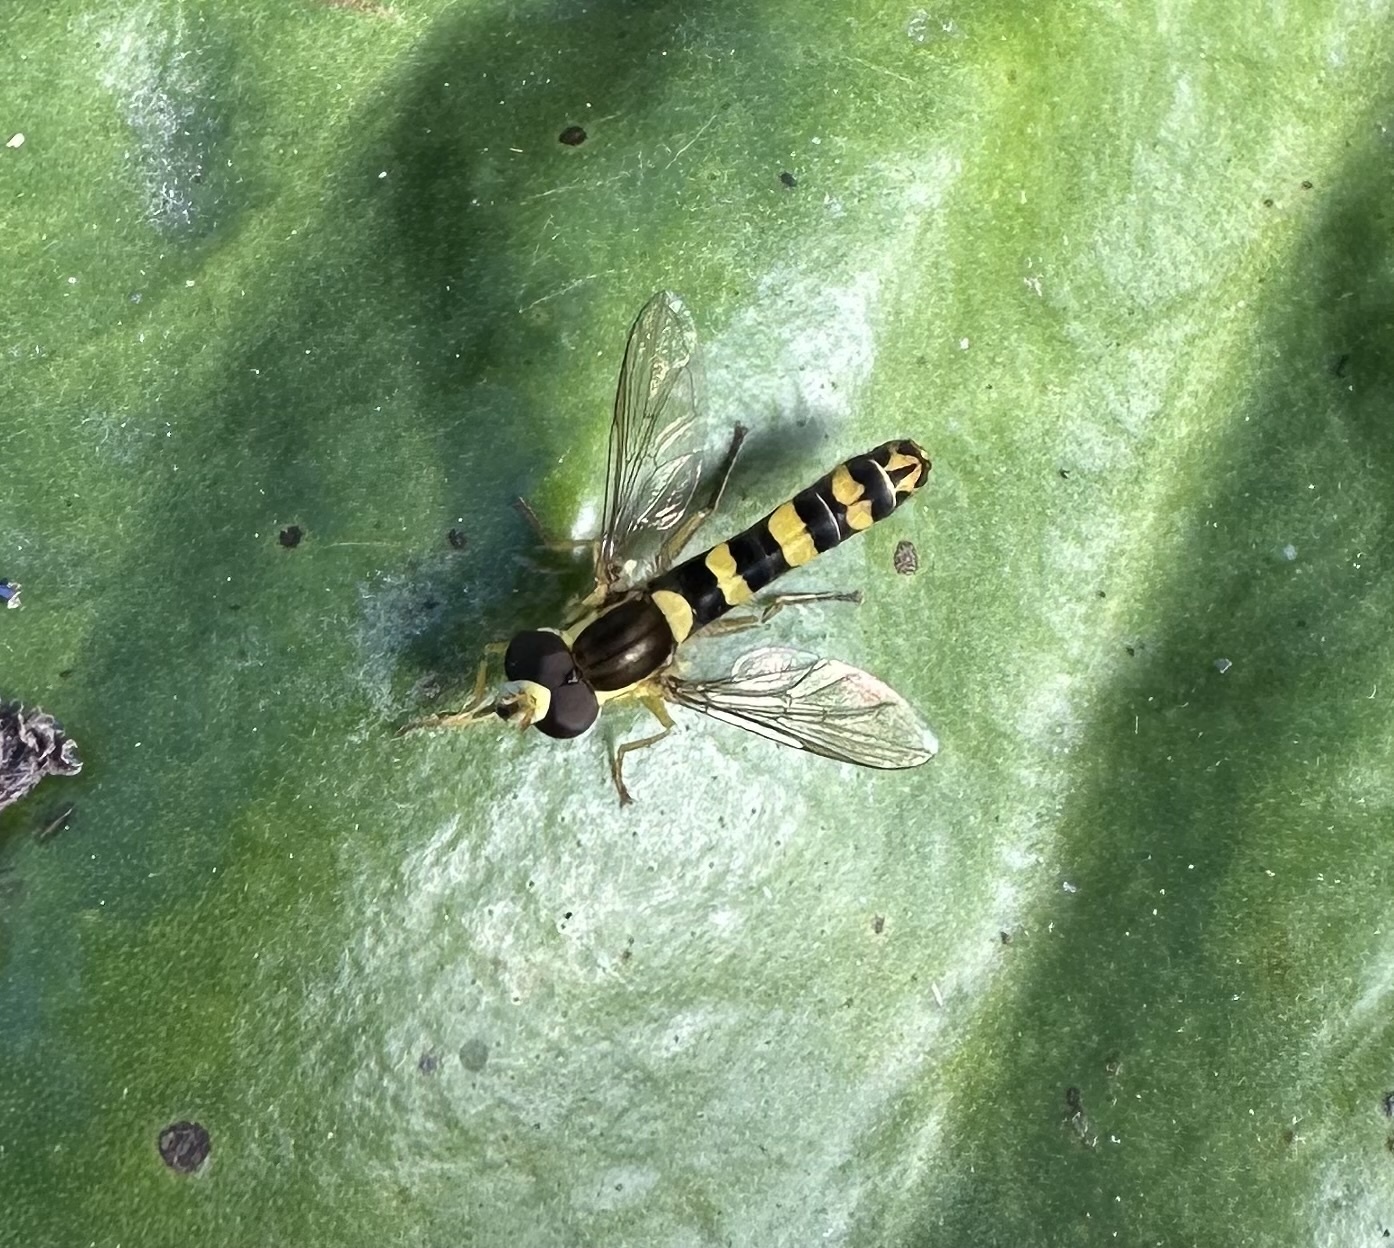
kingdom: Animalia
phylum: Arthropoda
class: Insecta
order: Diptera
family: Syrphidae
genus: Sphaerophoria
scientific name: Sphaerophoria scripta
